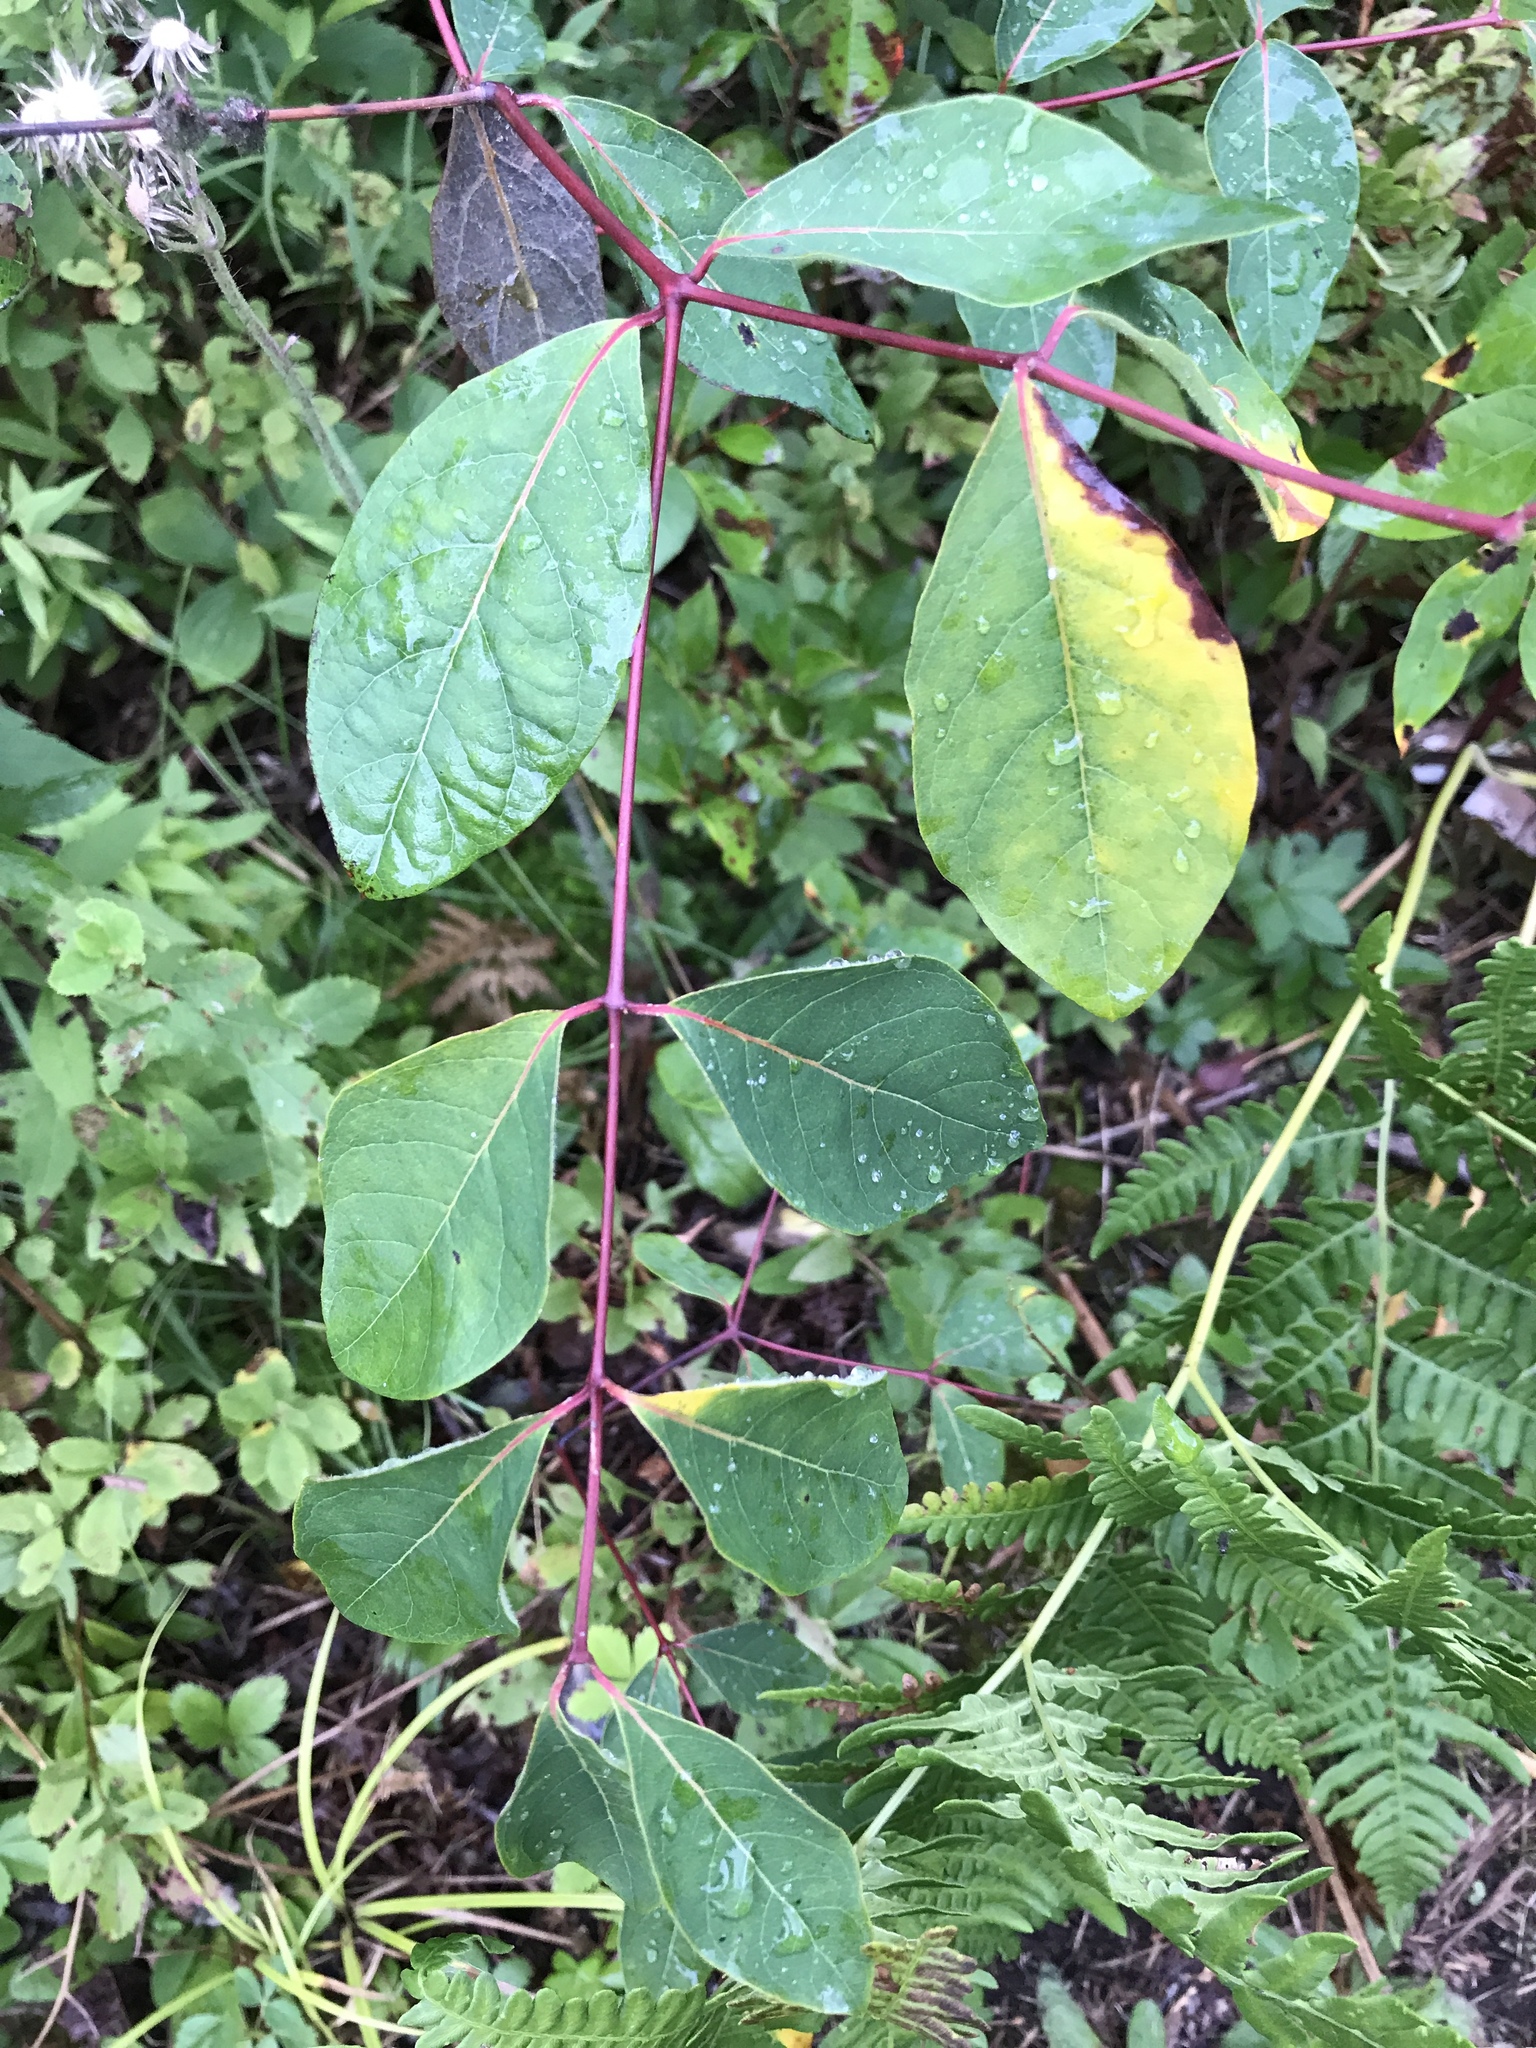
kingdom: Plantae
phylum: Tracheophyta
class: Magnoliopsida
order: Gentianales
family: Apocynaceae
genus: Apocynum
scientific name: Apocynum androsaemifolium
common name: Spreading dogbane
